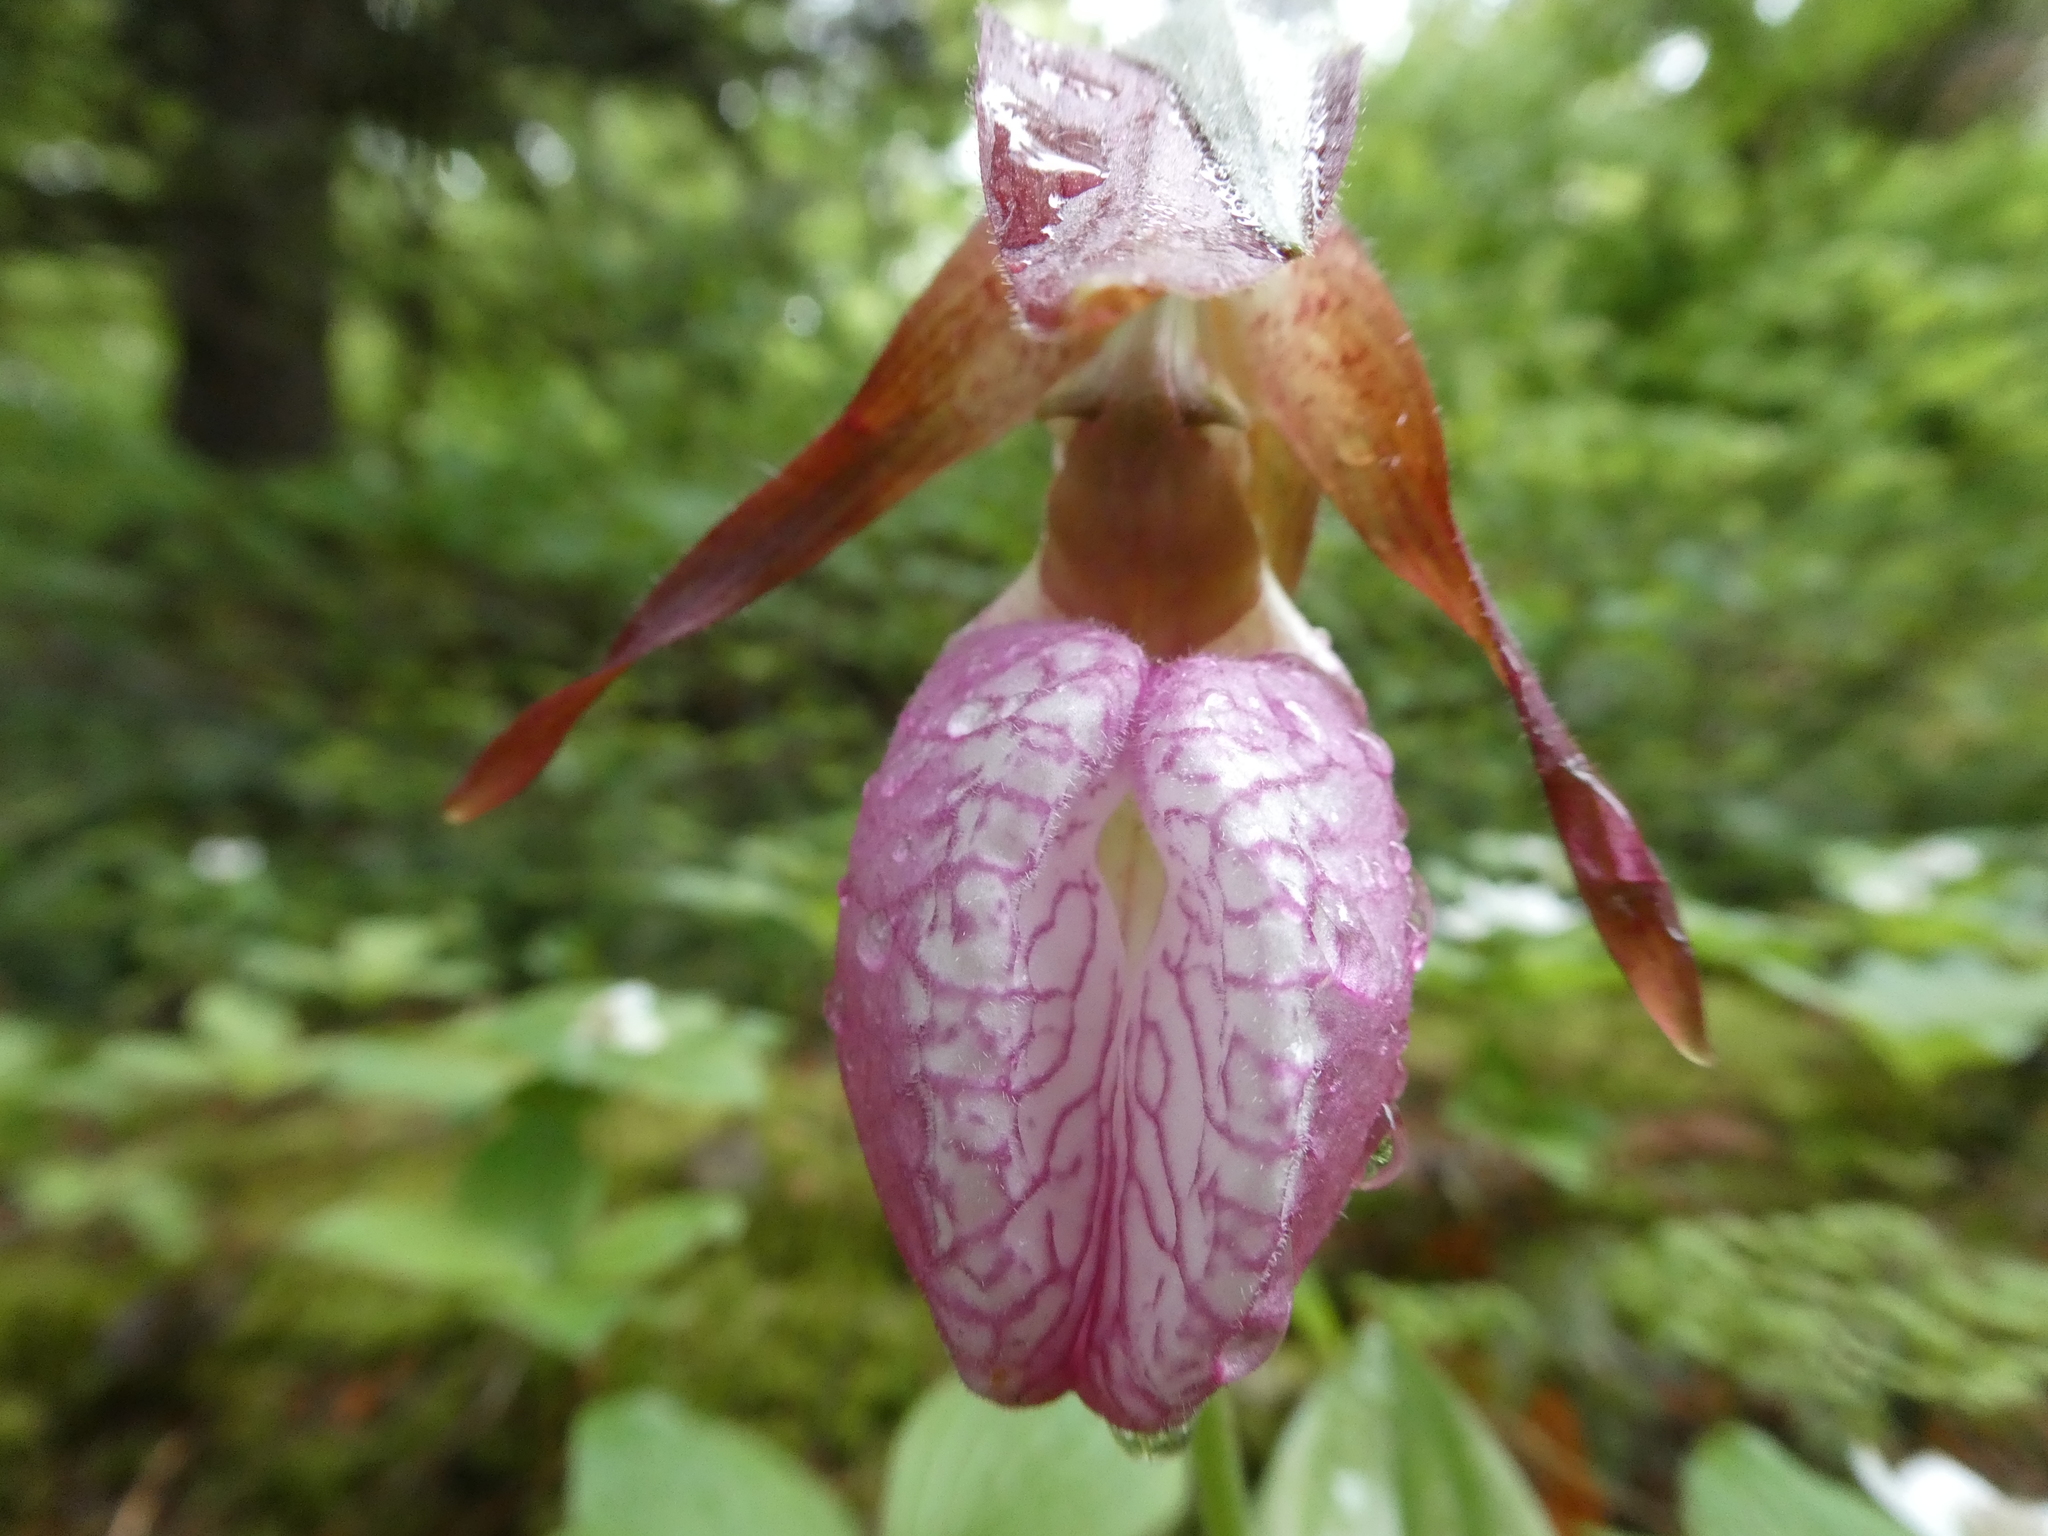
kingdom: Plantae
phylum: Tracheophyta
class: Liliopsida
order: Asparagales
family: Orchidaceae
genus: Cypripedium
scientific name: Cypripedium acaule
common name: Pink lady's-slipper
